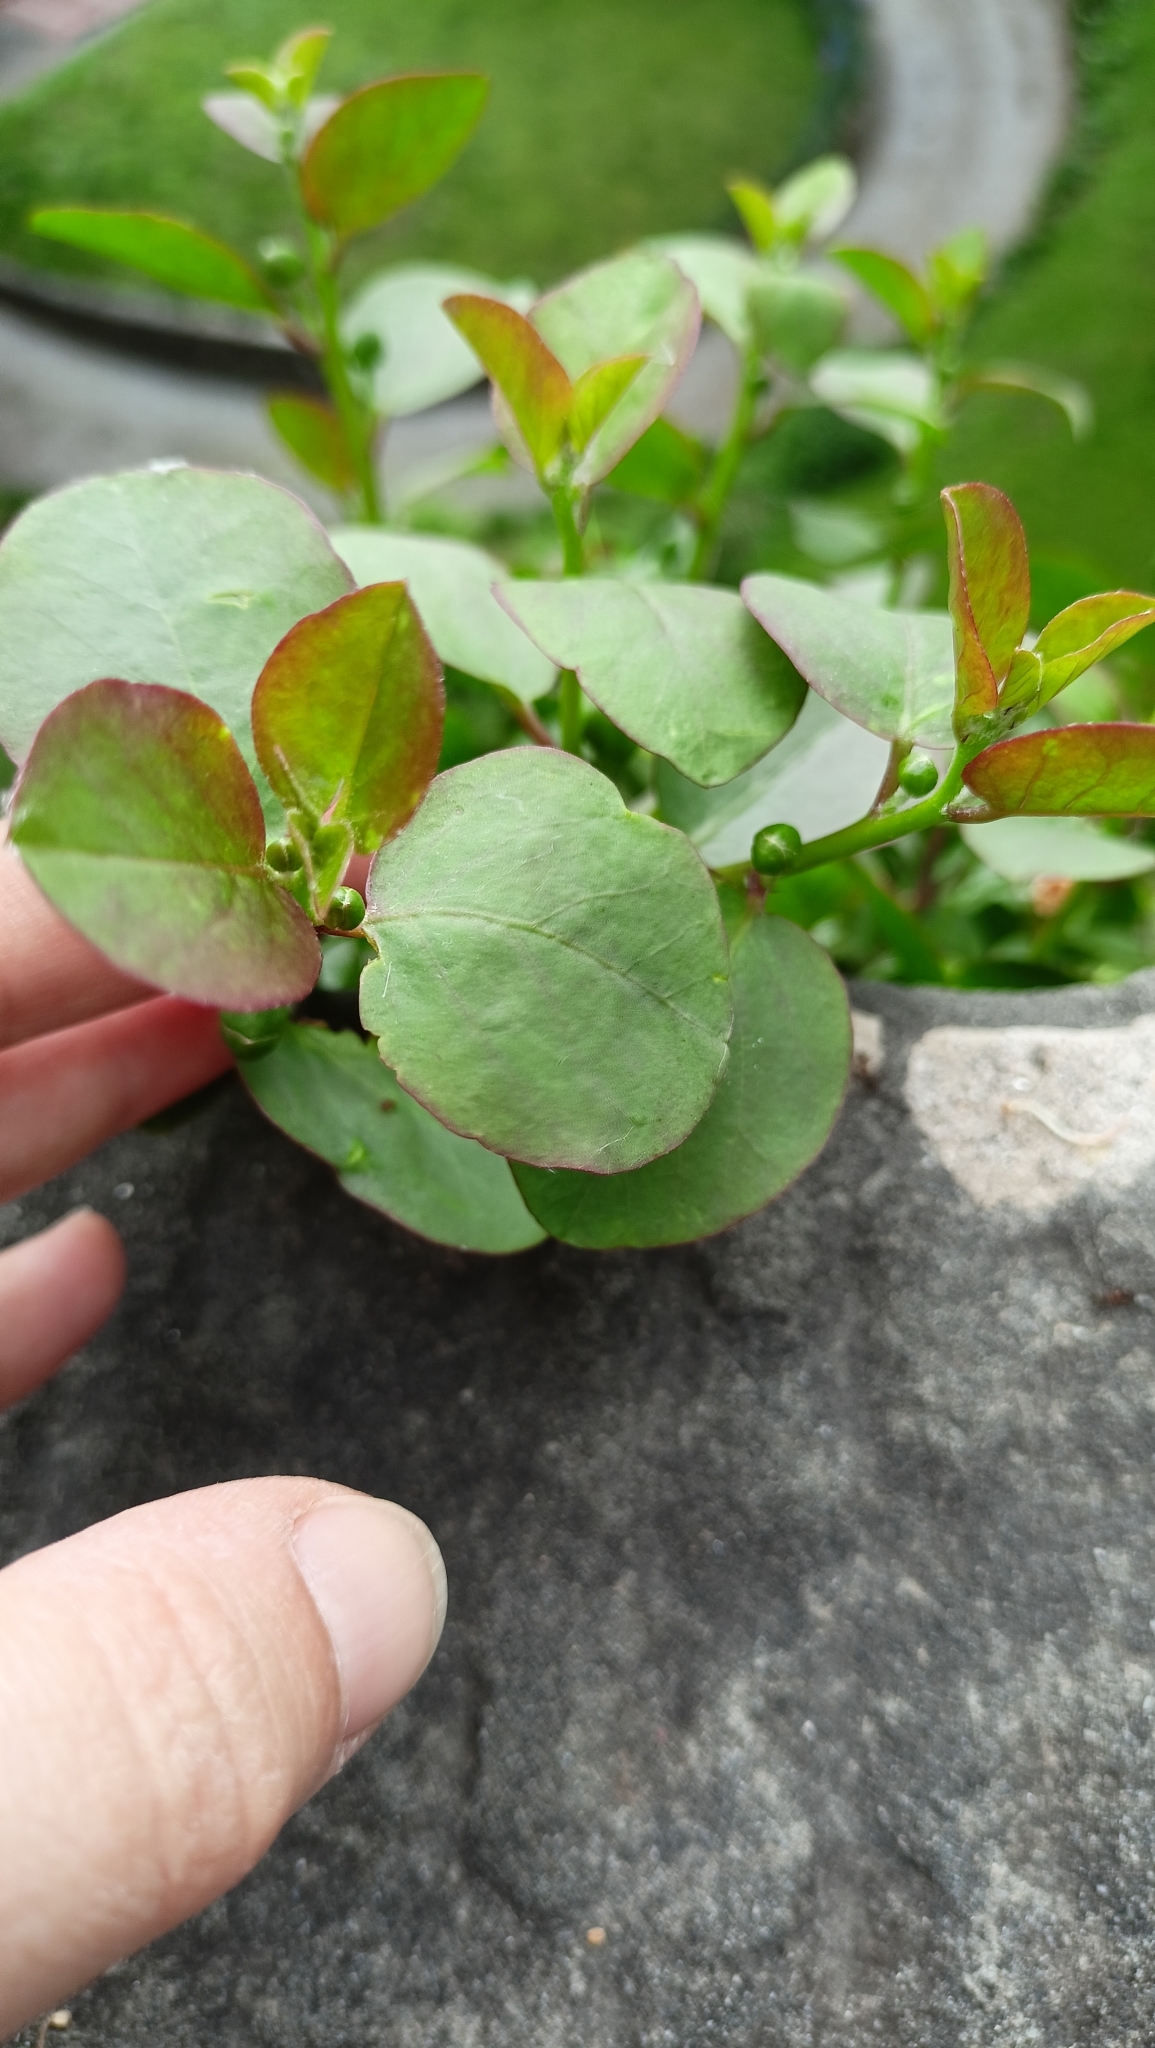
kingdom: Plantae
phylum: Tracheophyta
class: Magnoliopsida
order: Brassicales
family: Capparaceae
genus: Capparis
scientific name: Capparis orientalis
